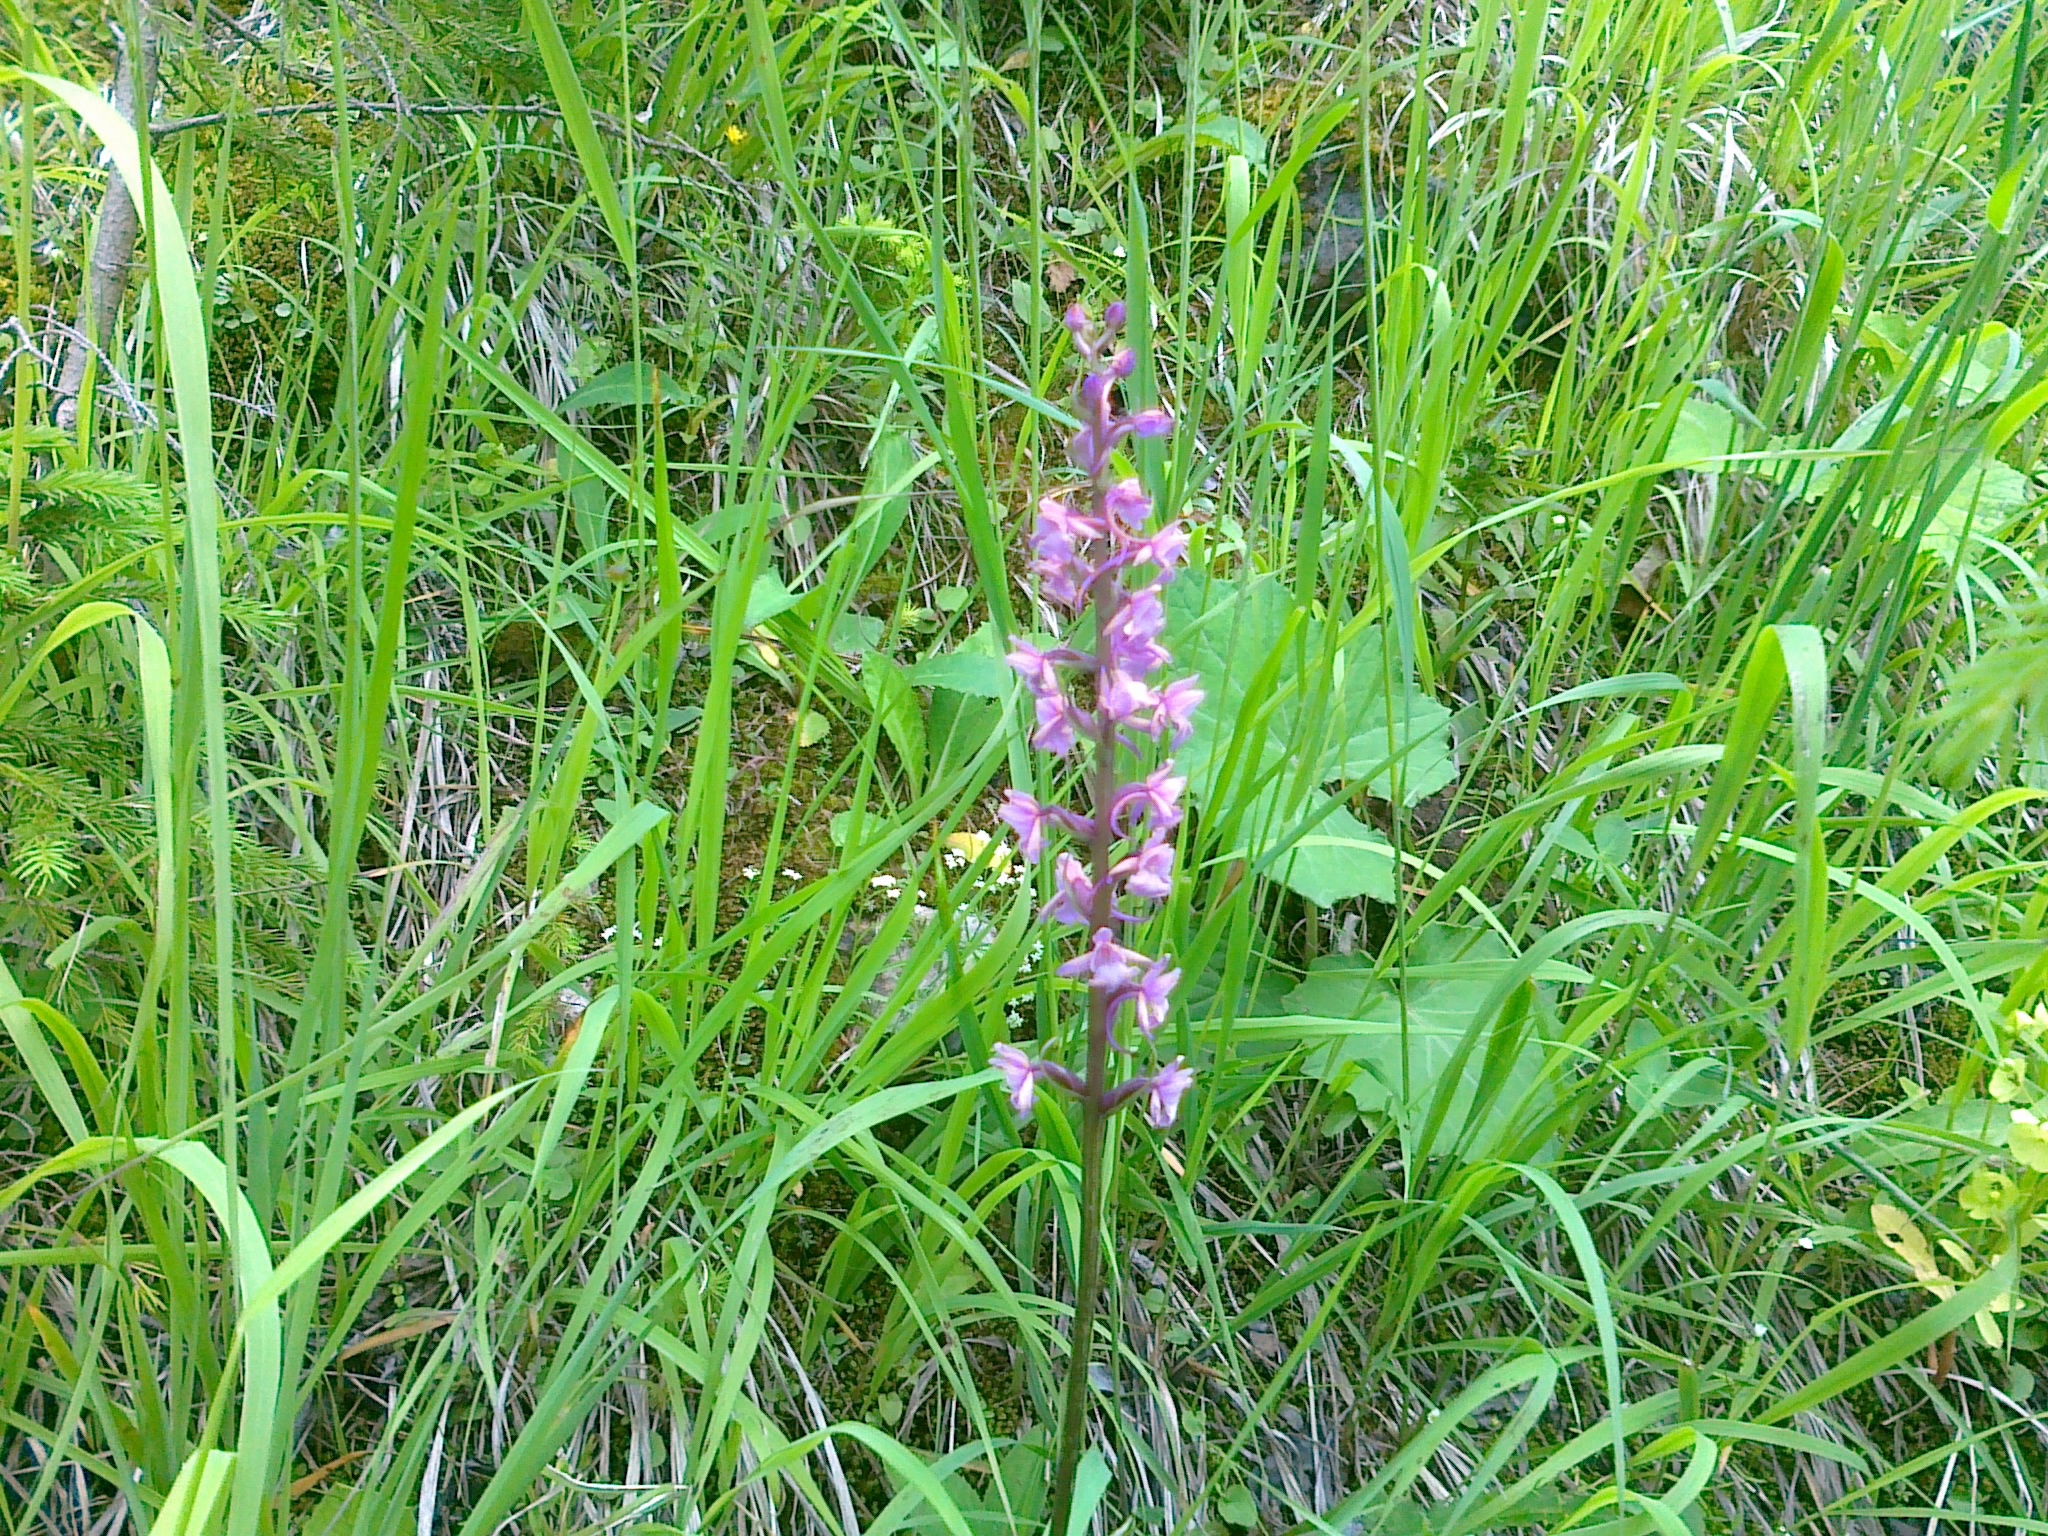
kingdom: Plantae
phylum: Tracheophyta
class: Liliopsida
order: Asparagales
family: Orchidaceae
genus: Gymnadenia
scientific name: Gymnadenia conopsea
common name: Fragrant orchid
